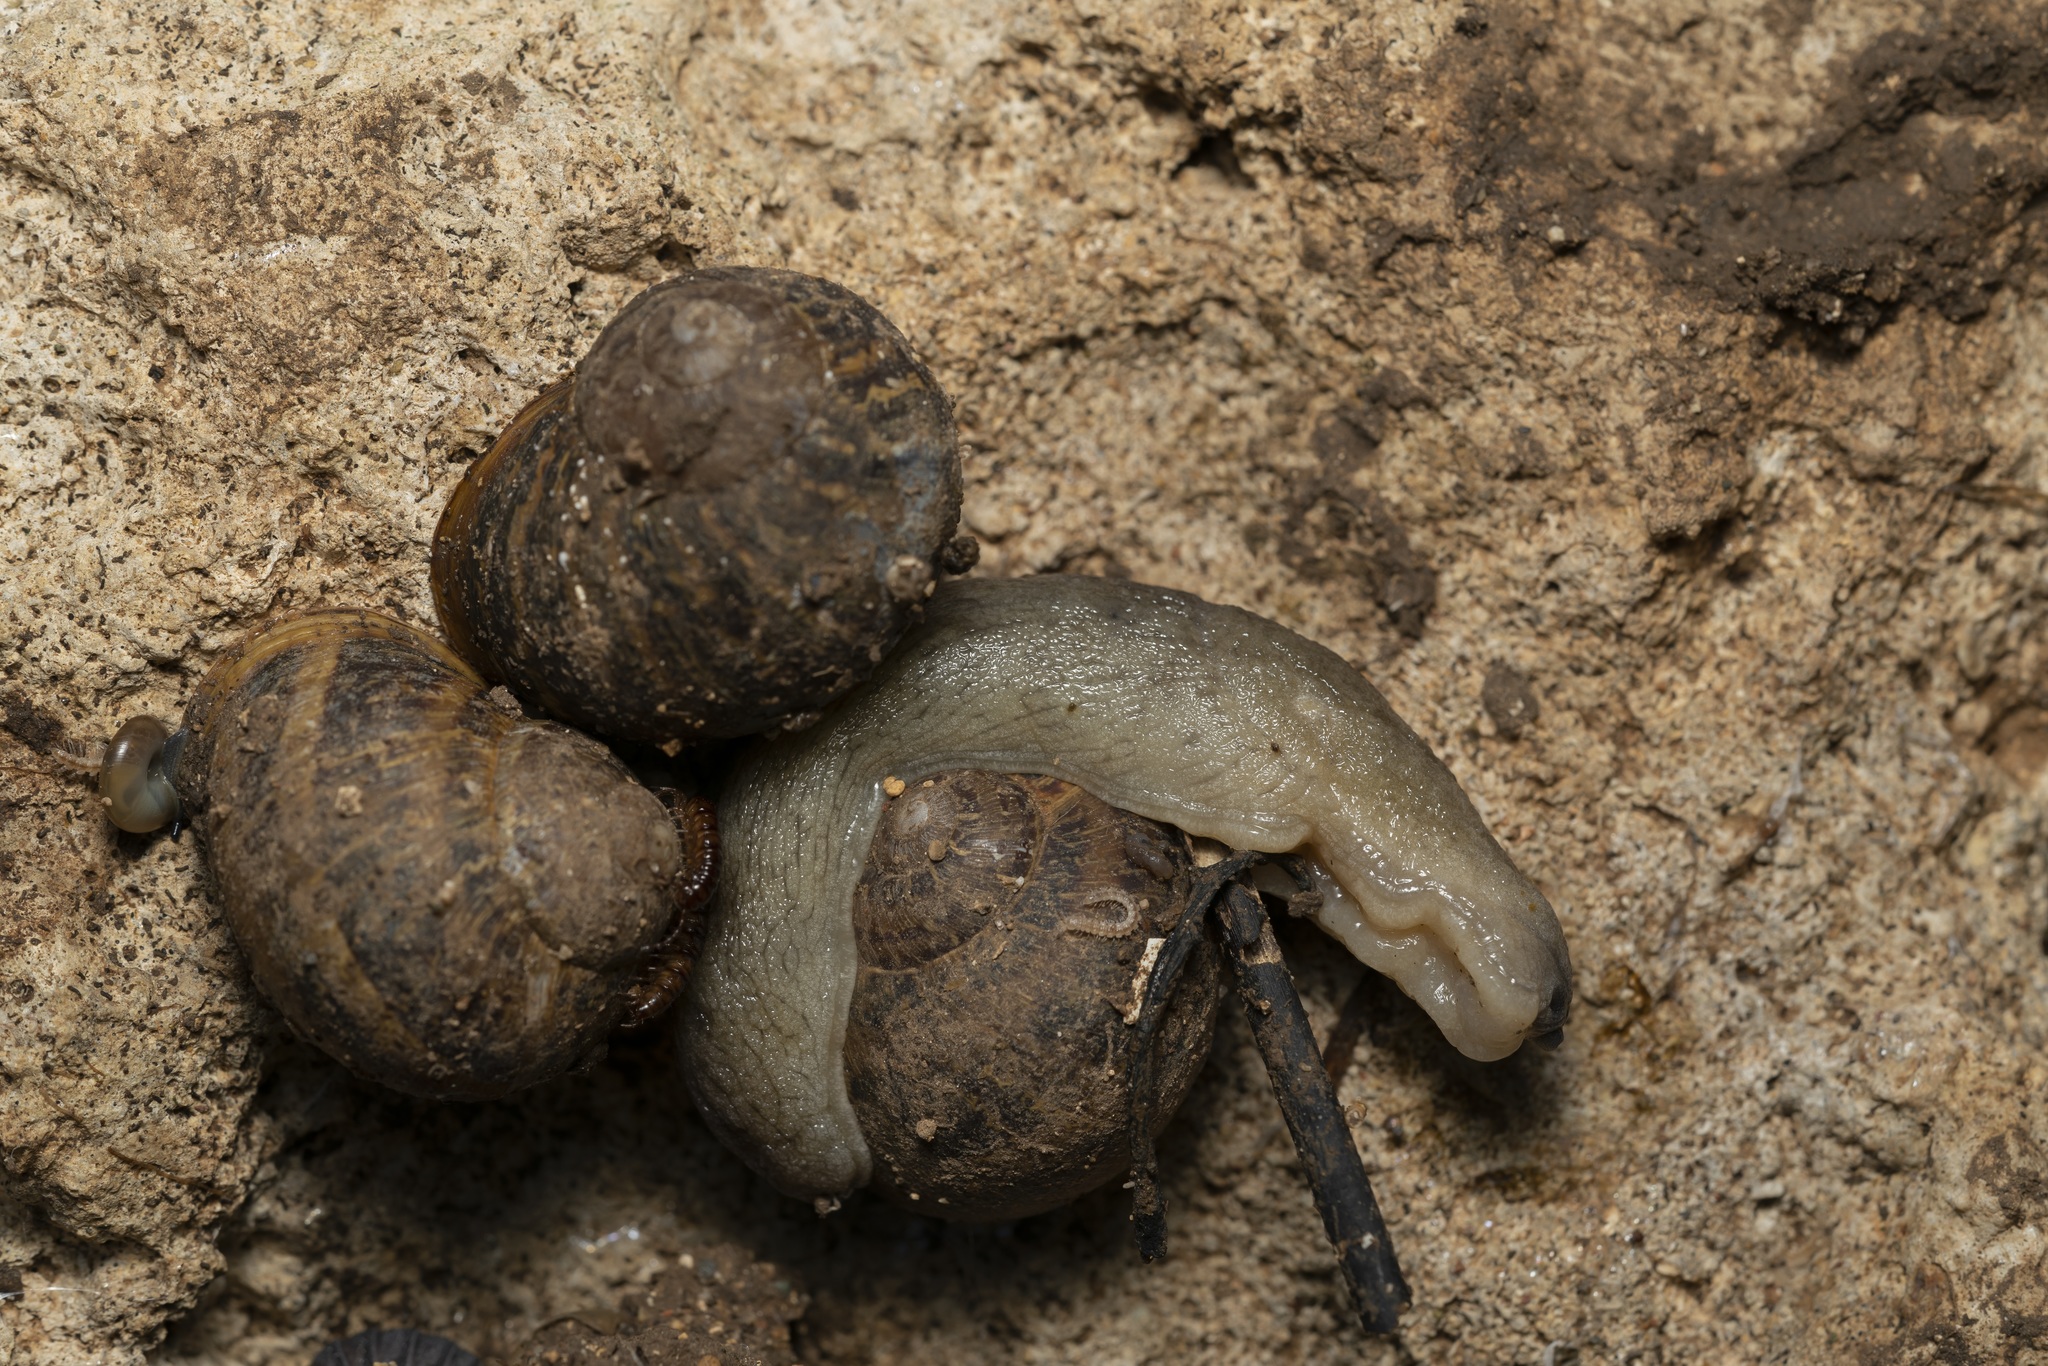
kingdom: Animalia
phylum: Mollusca
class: Gastropoda
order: Stylommatophora
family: Milacidae
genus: Tandonia
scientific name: Tandonia pageti
